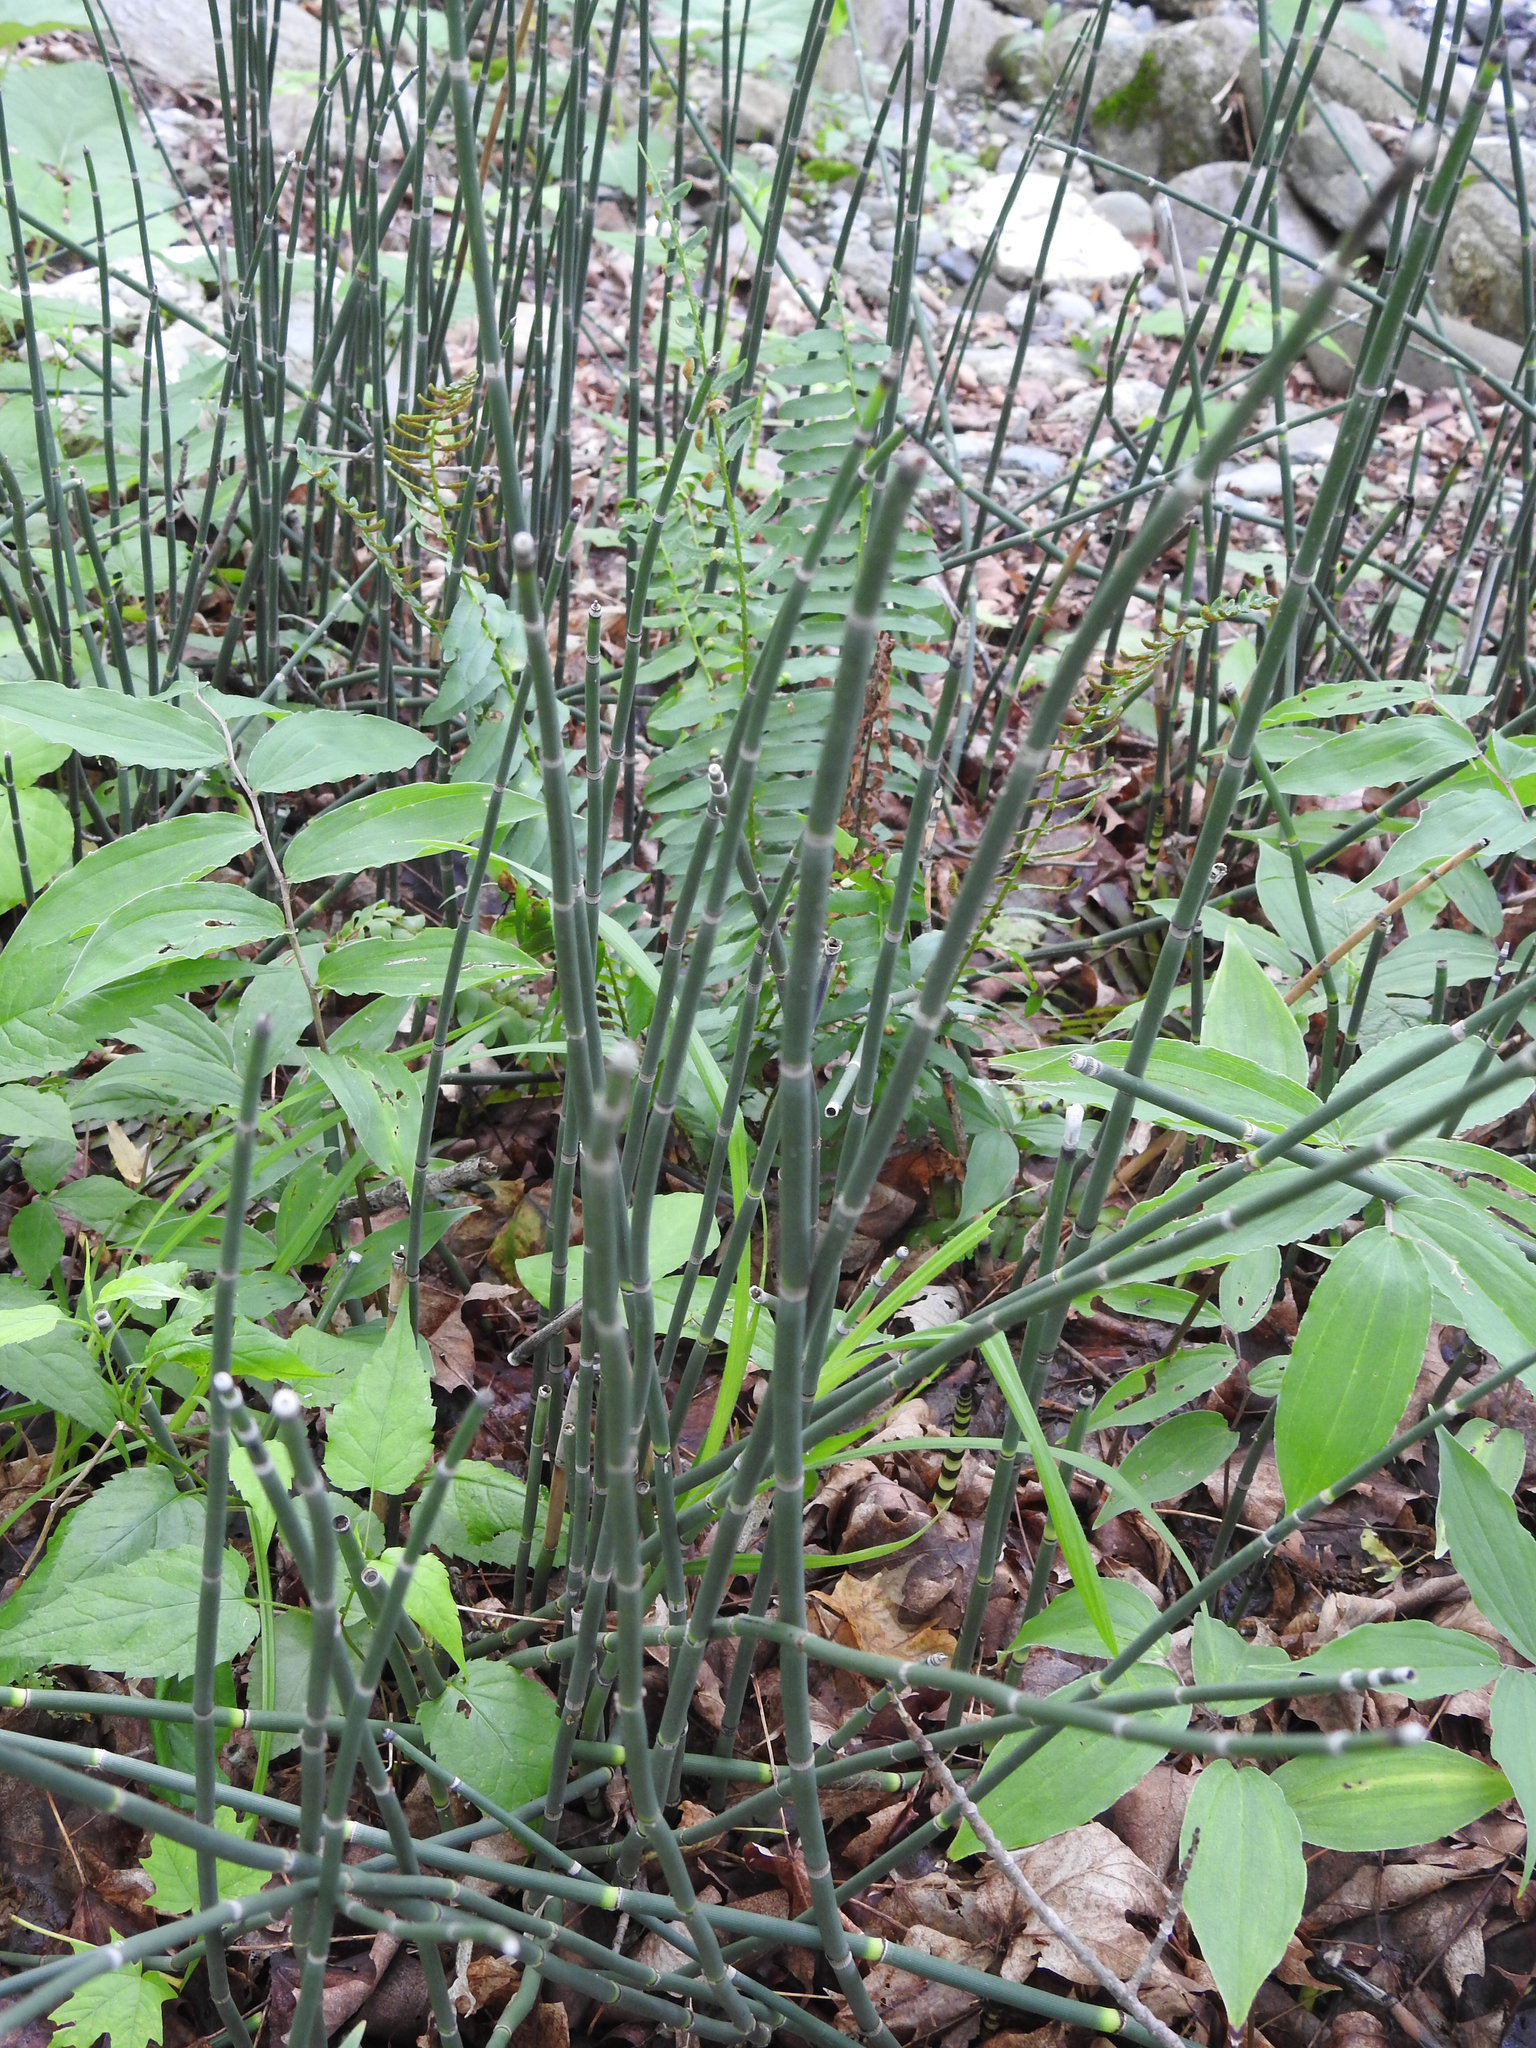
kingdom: Plantae
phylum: Tracheophyta
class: Polypodiopsida
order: Equisetales
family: Equisetaceae
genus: Equisetum
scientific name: Equisetum hyemale
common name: Rough horsetail
